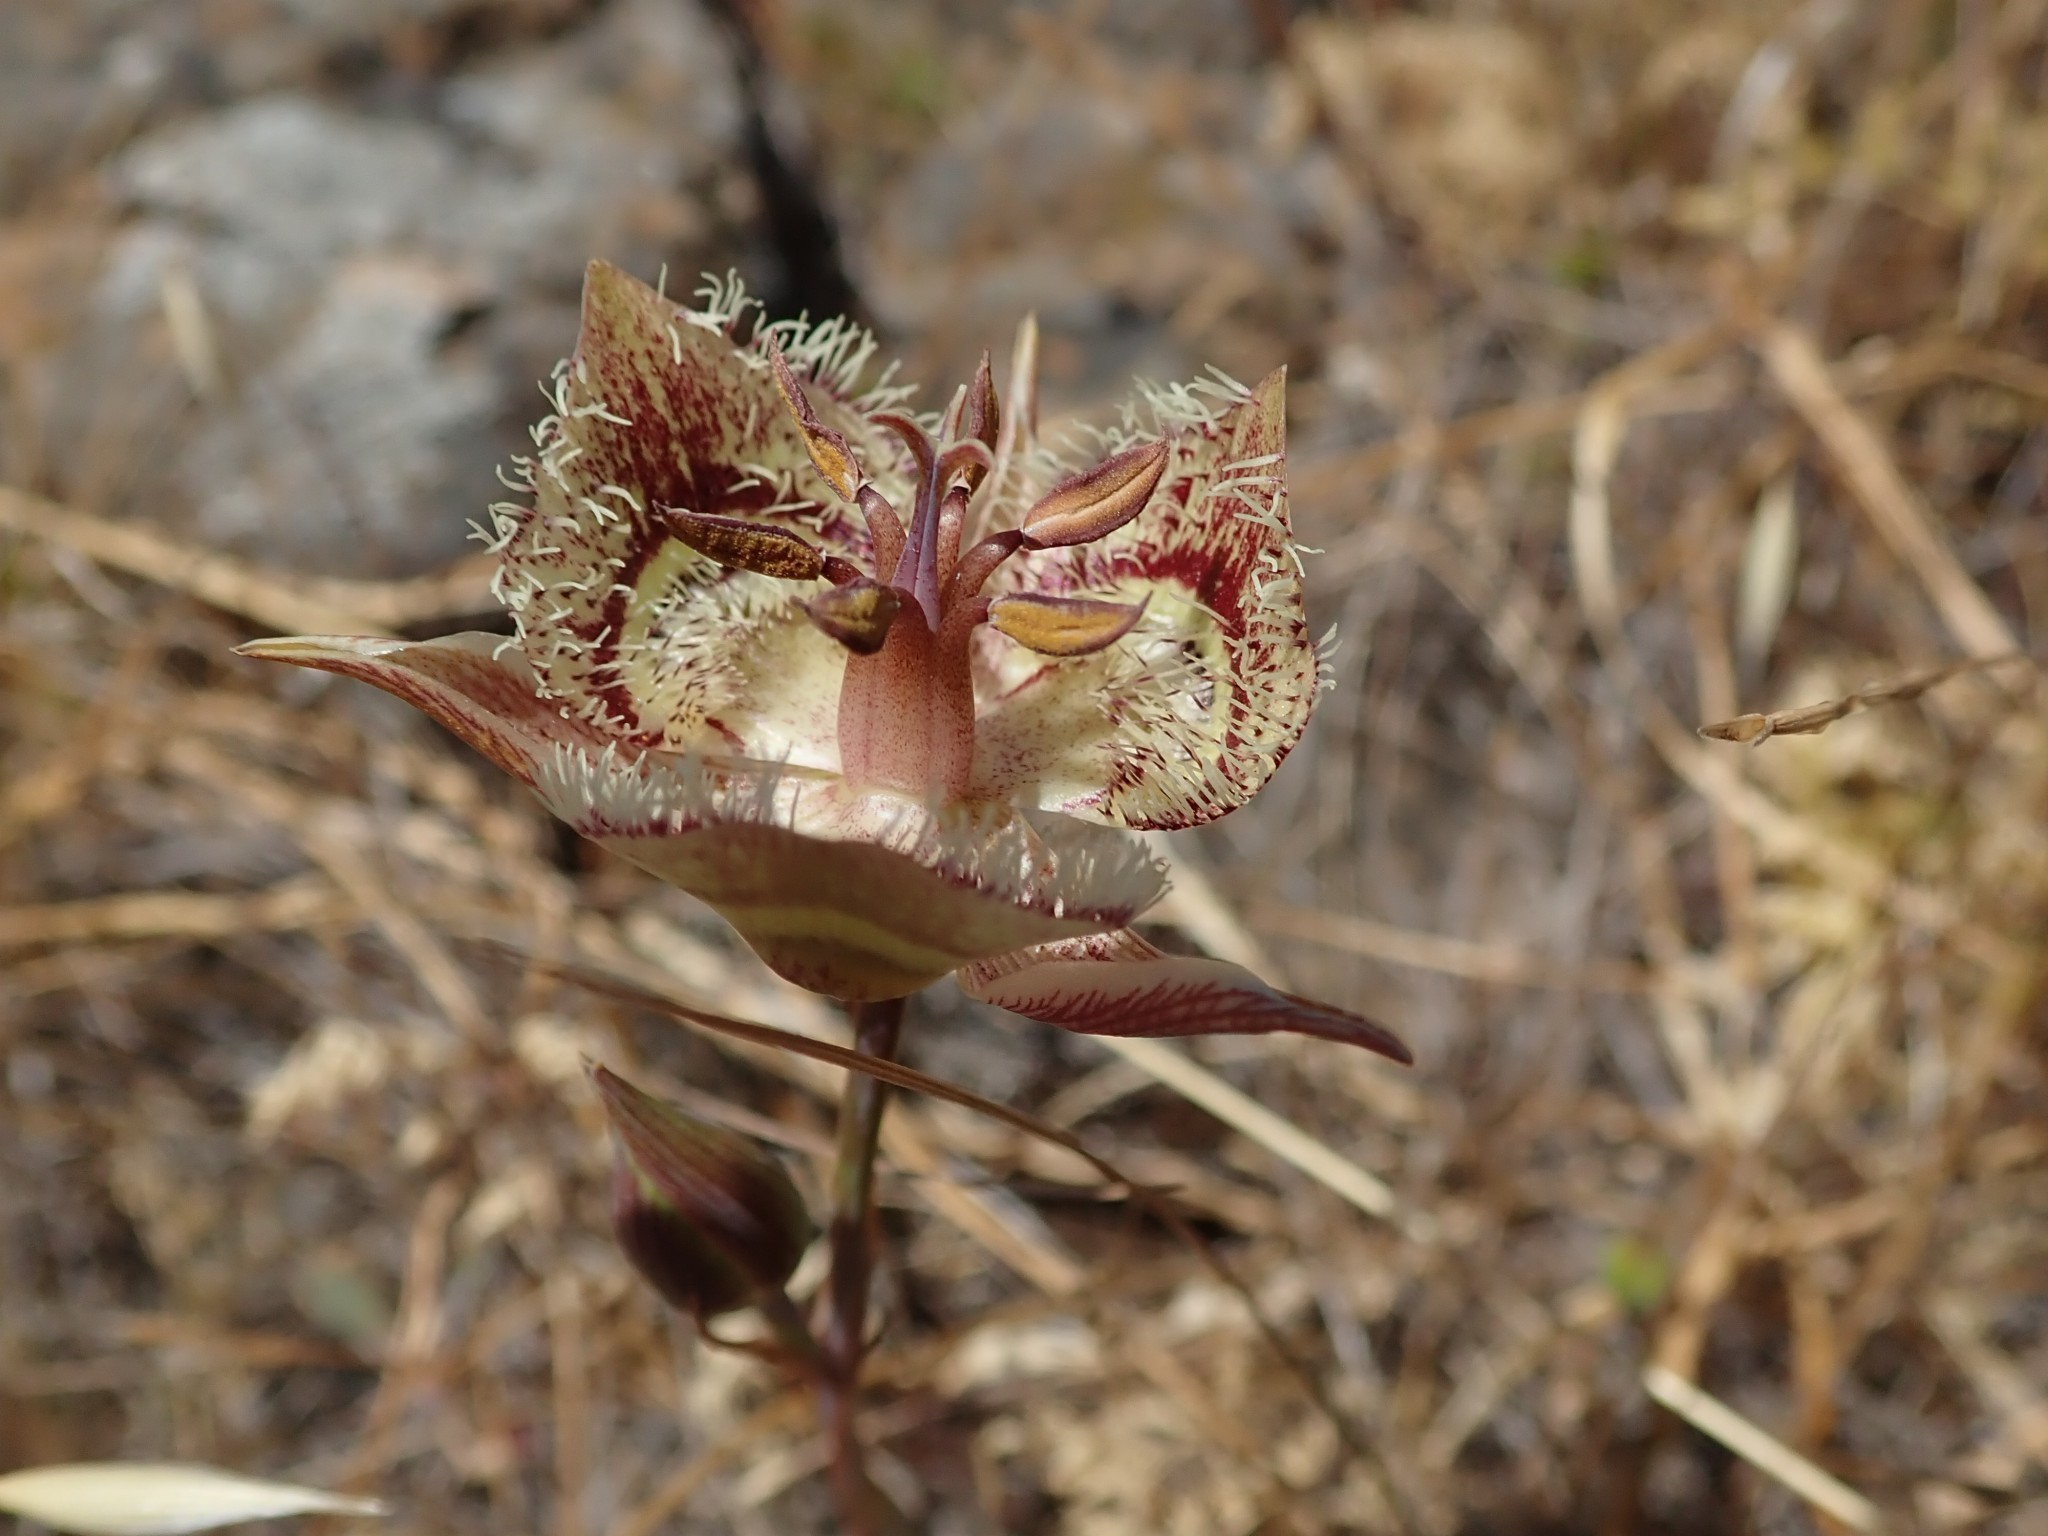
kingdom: Plantae
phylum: Tracheophyta
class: Liliopsida
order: Liliales
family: Liliaceae
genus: Calochortus
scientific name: Calochortus tiburonensis
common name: Tiburon mariposa-lily
